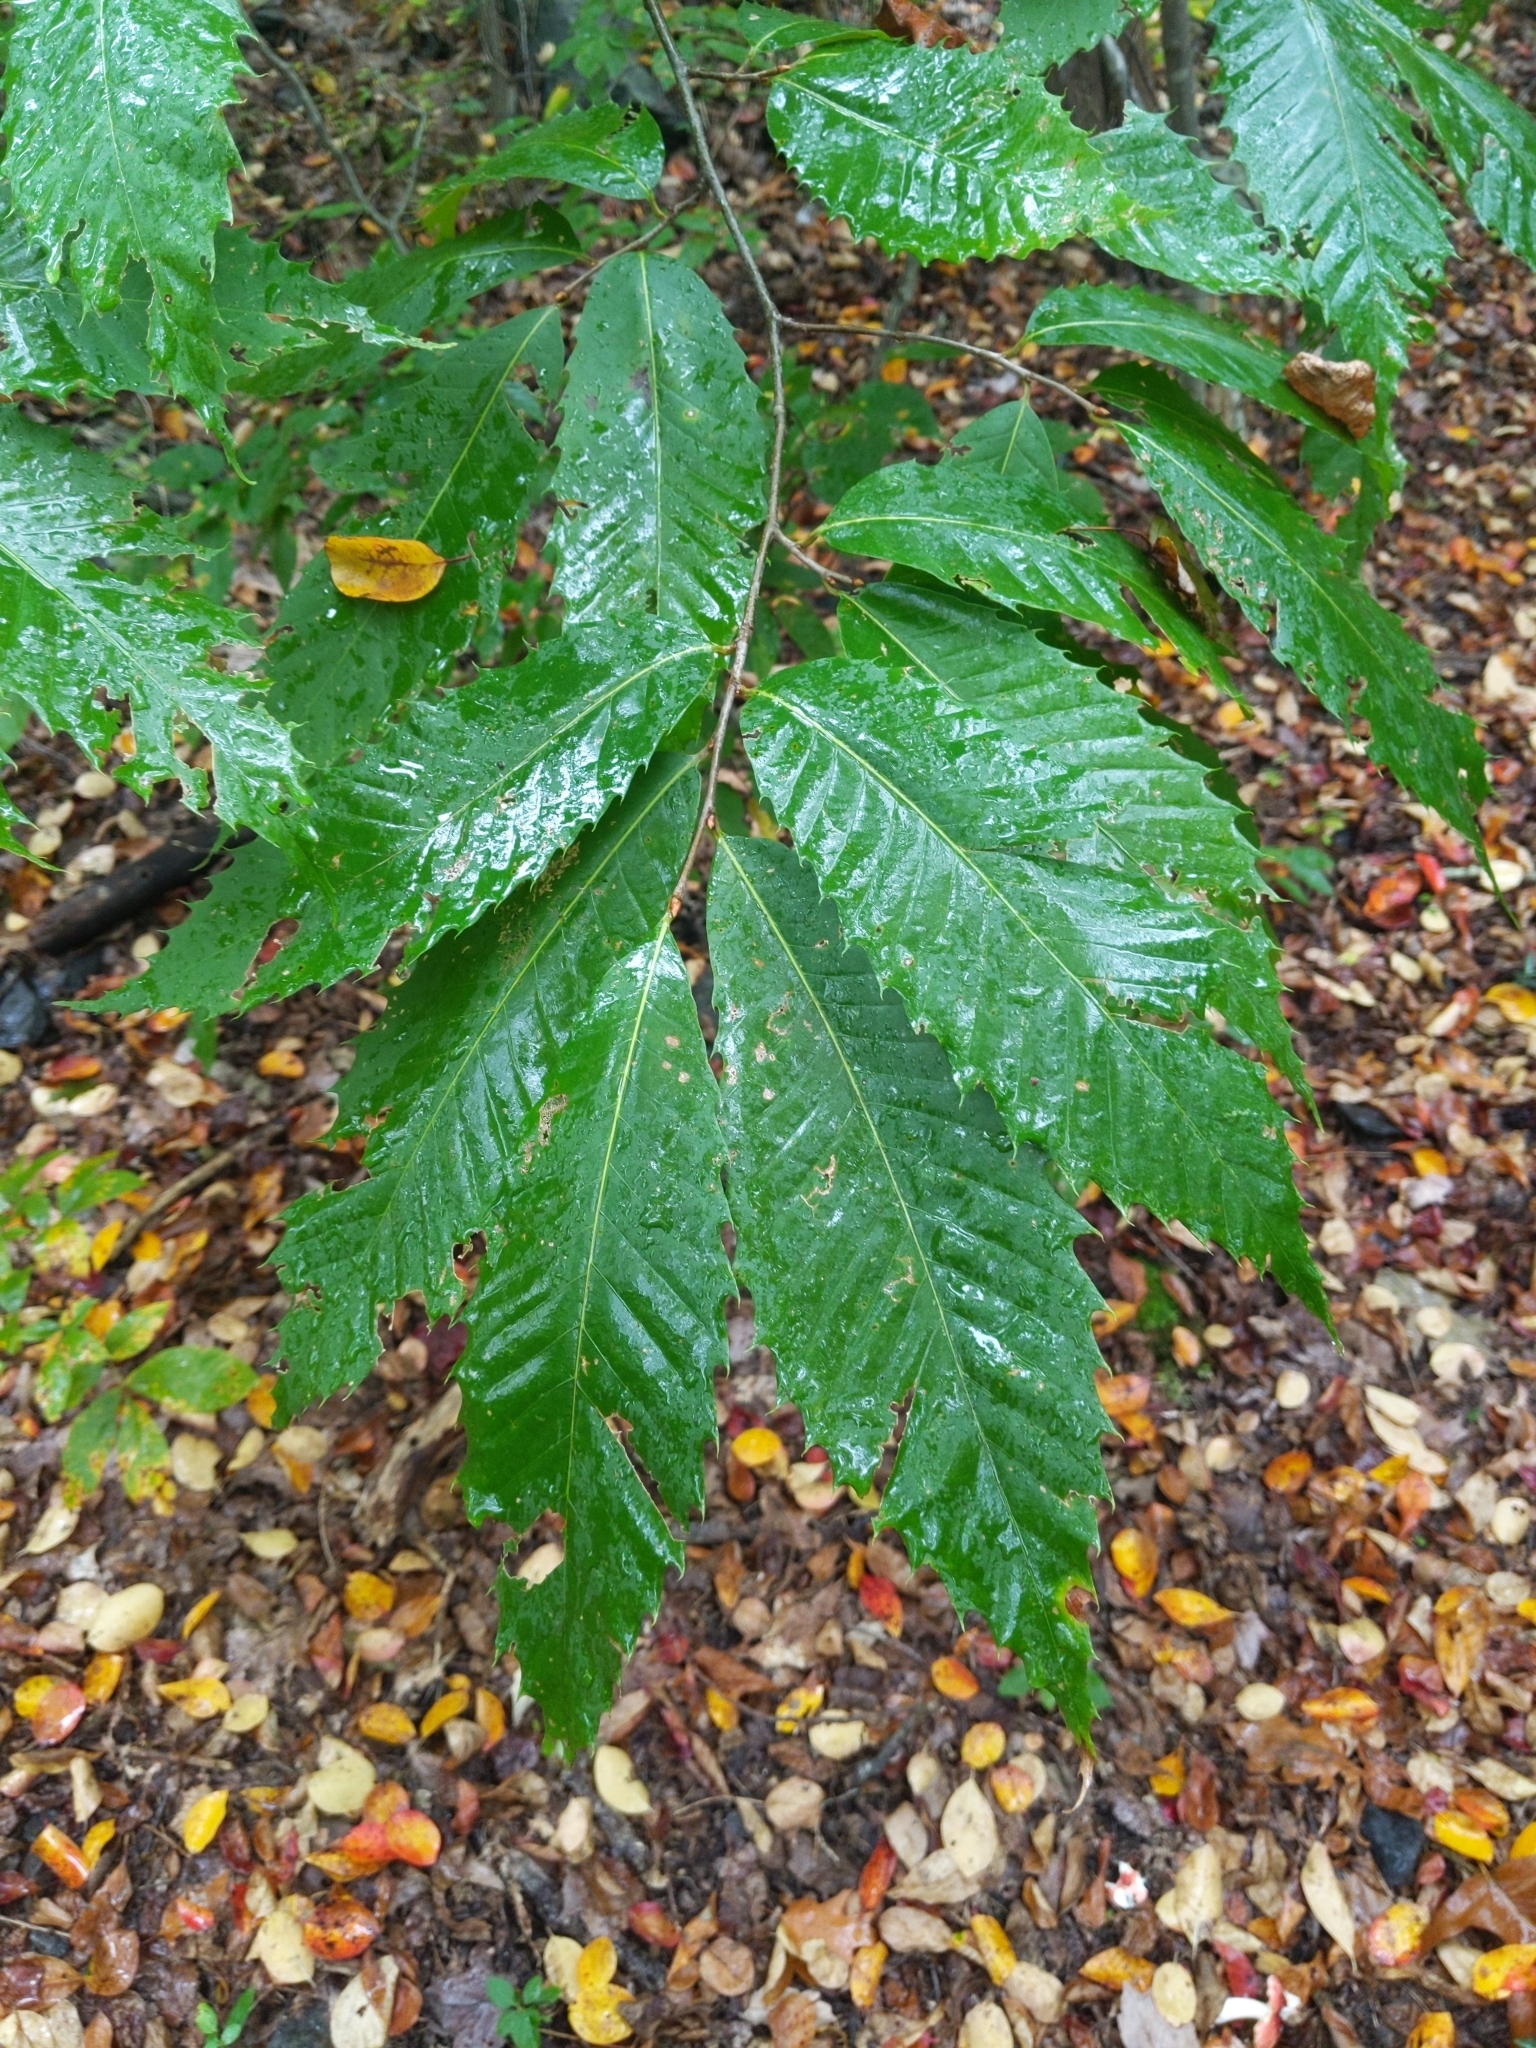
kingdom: Plantae
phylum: Tracheophyta
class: Magnoliopsida
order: Fagales
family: Fagaceae
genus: Castanea
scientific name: Castanea dentata
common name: American chestnut
